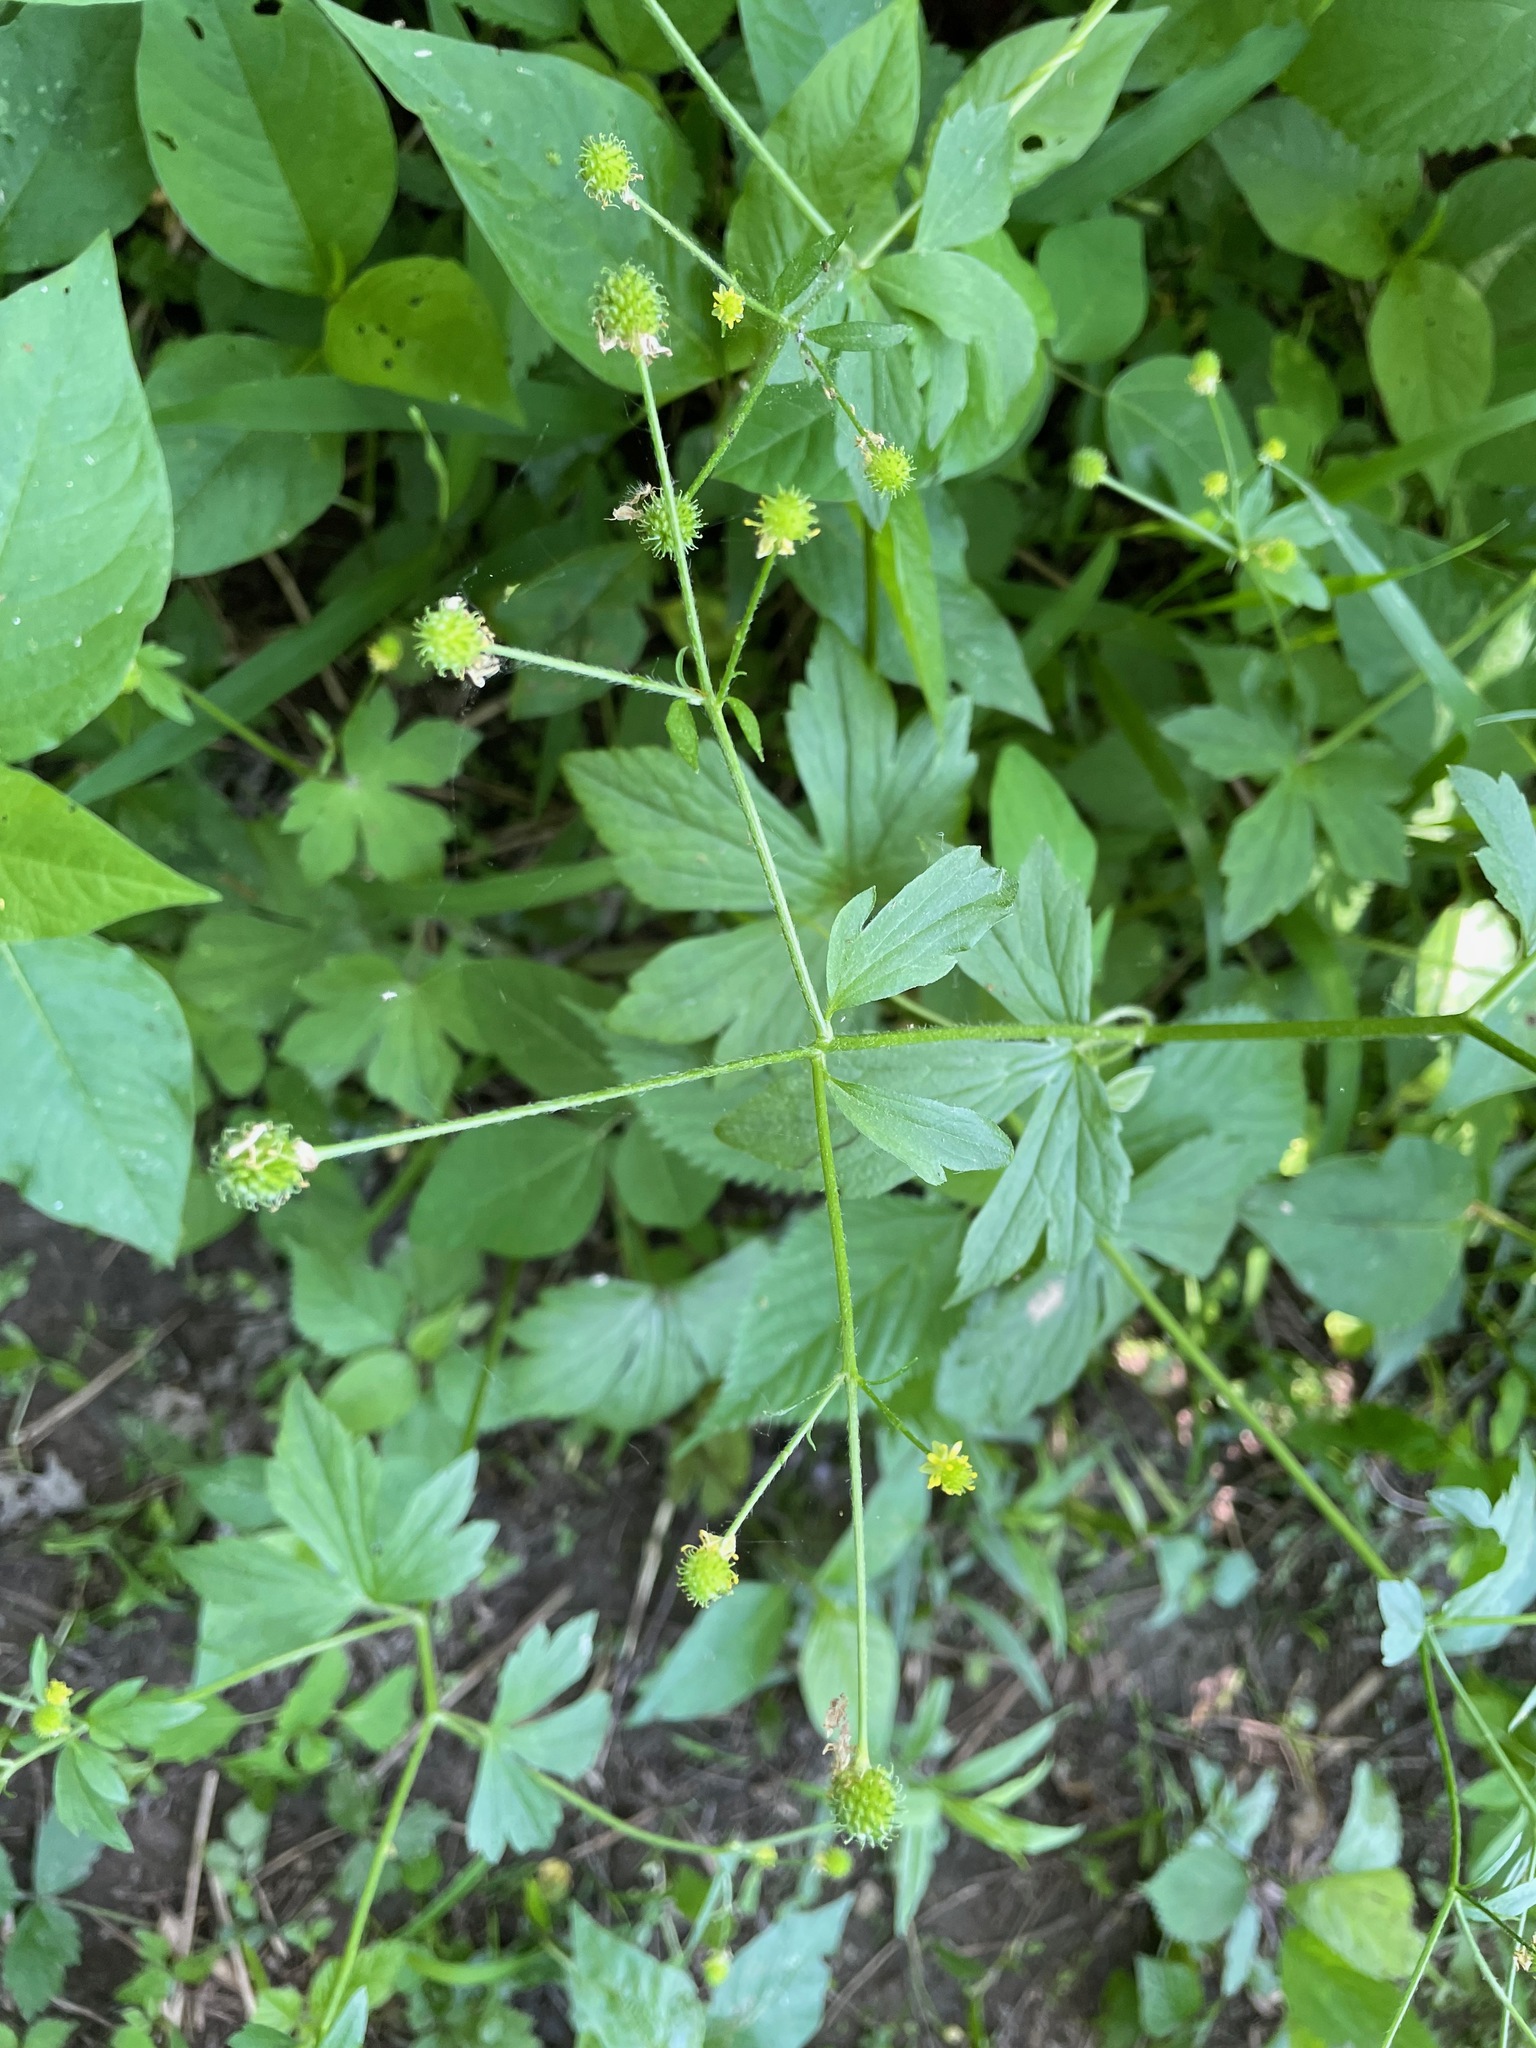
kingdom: Plantae
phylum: Tracheophyta
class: Magnoliopsida
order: Ranunculales
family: Ranunculaceae
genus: Ranunculus
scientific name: Ranunculus recurvatus
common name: Blisterwort
